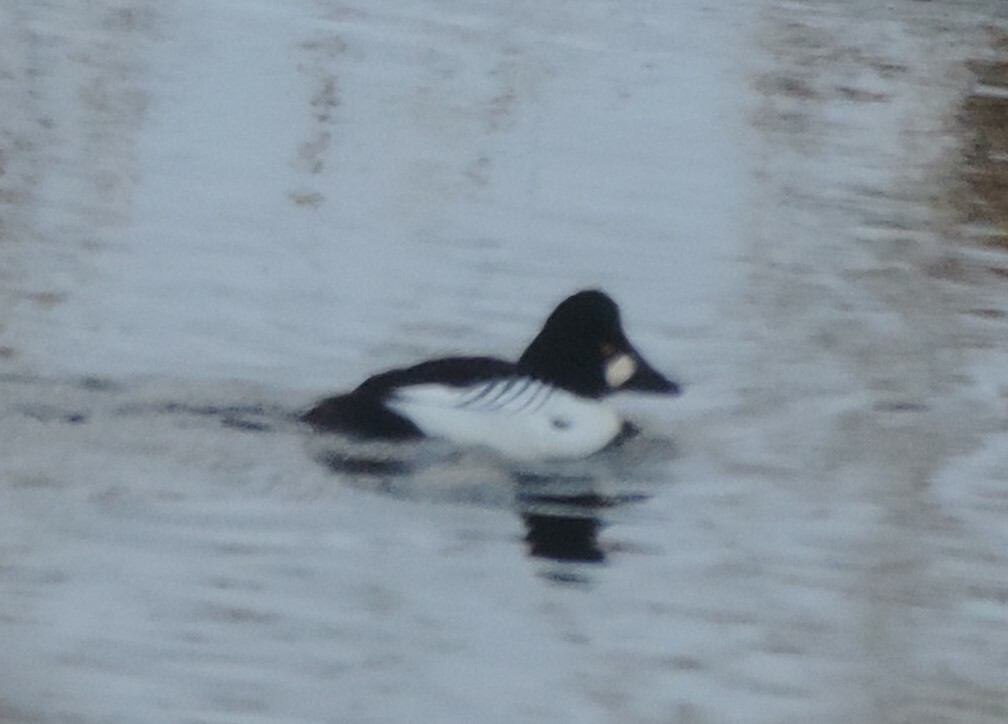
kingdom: Animalia
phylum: Chordata
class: Aves
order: Anseriformes
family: Anatidae
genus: Bucephala
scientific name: Bucephala clangula
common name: Common goldeneye
